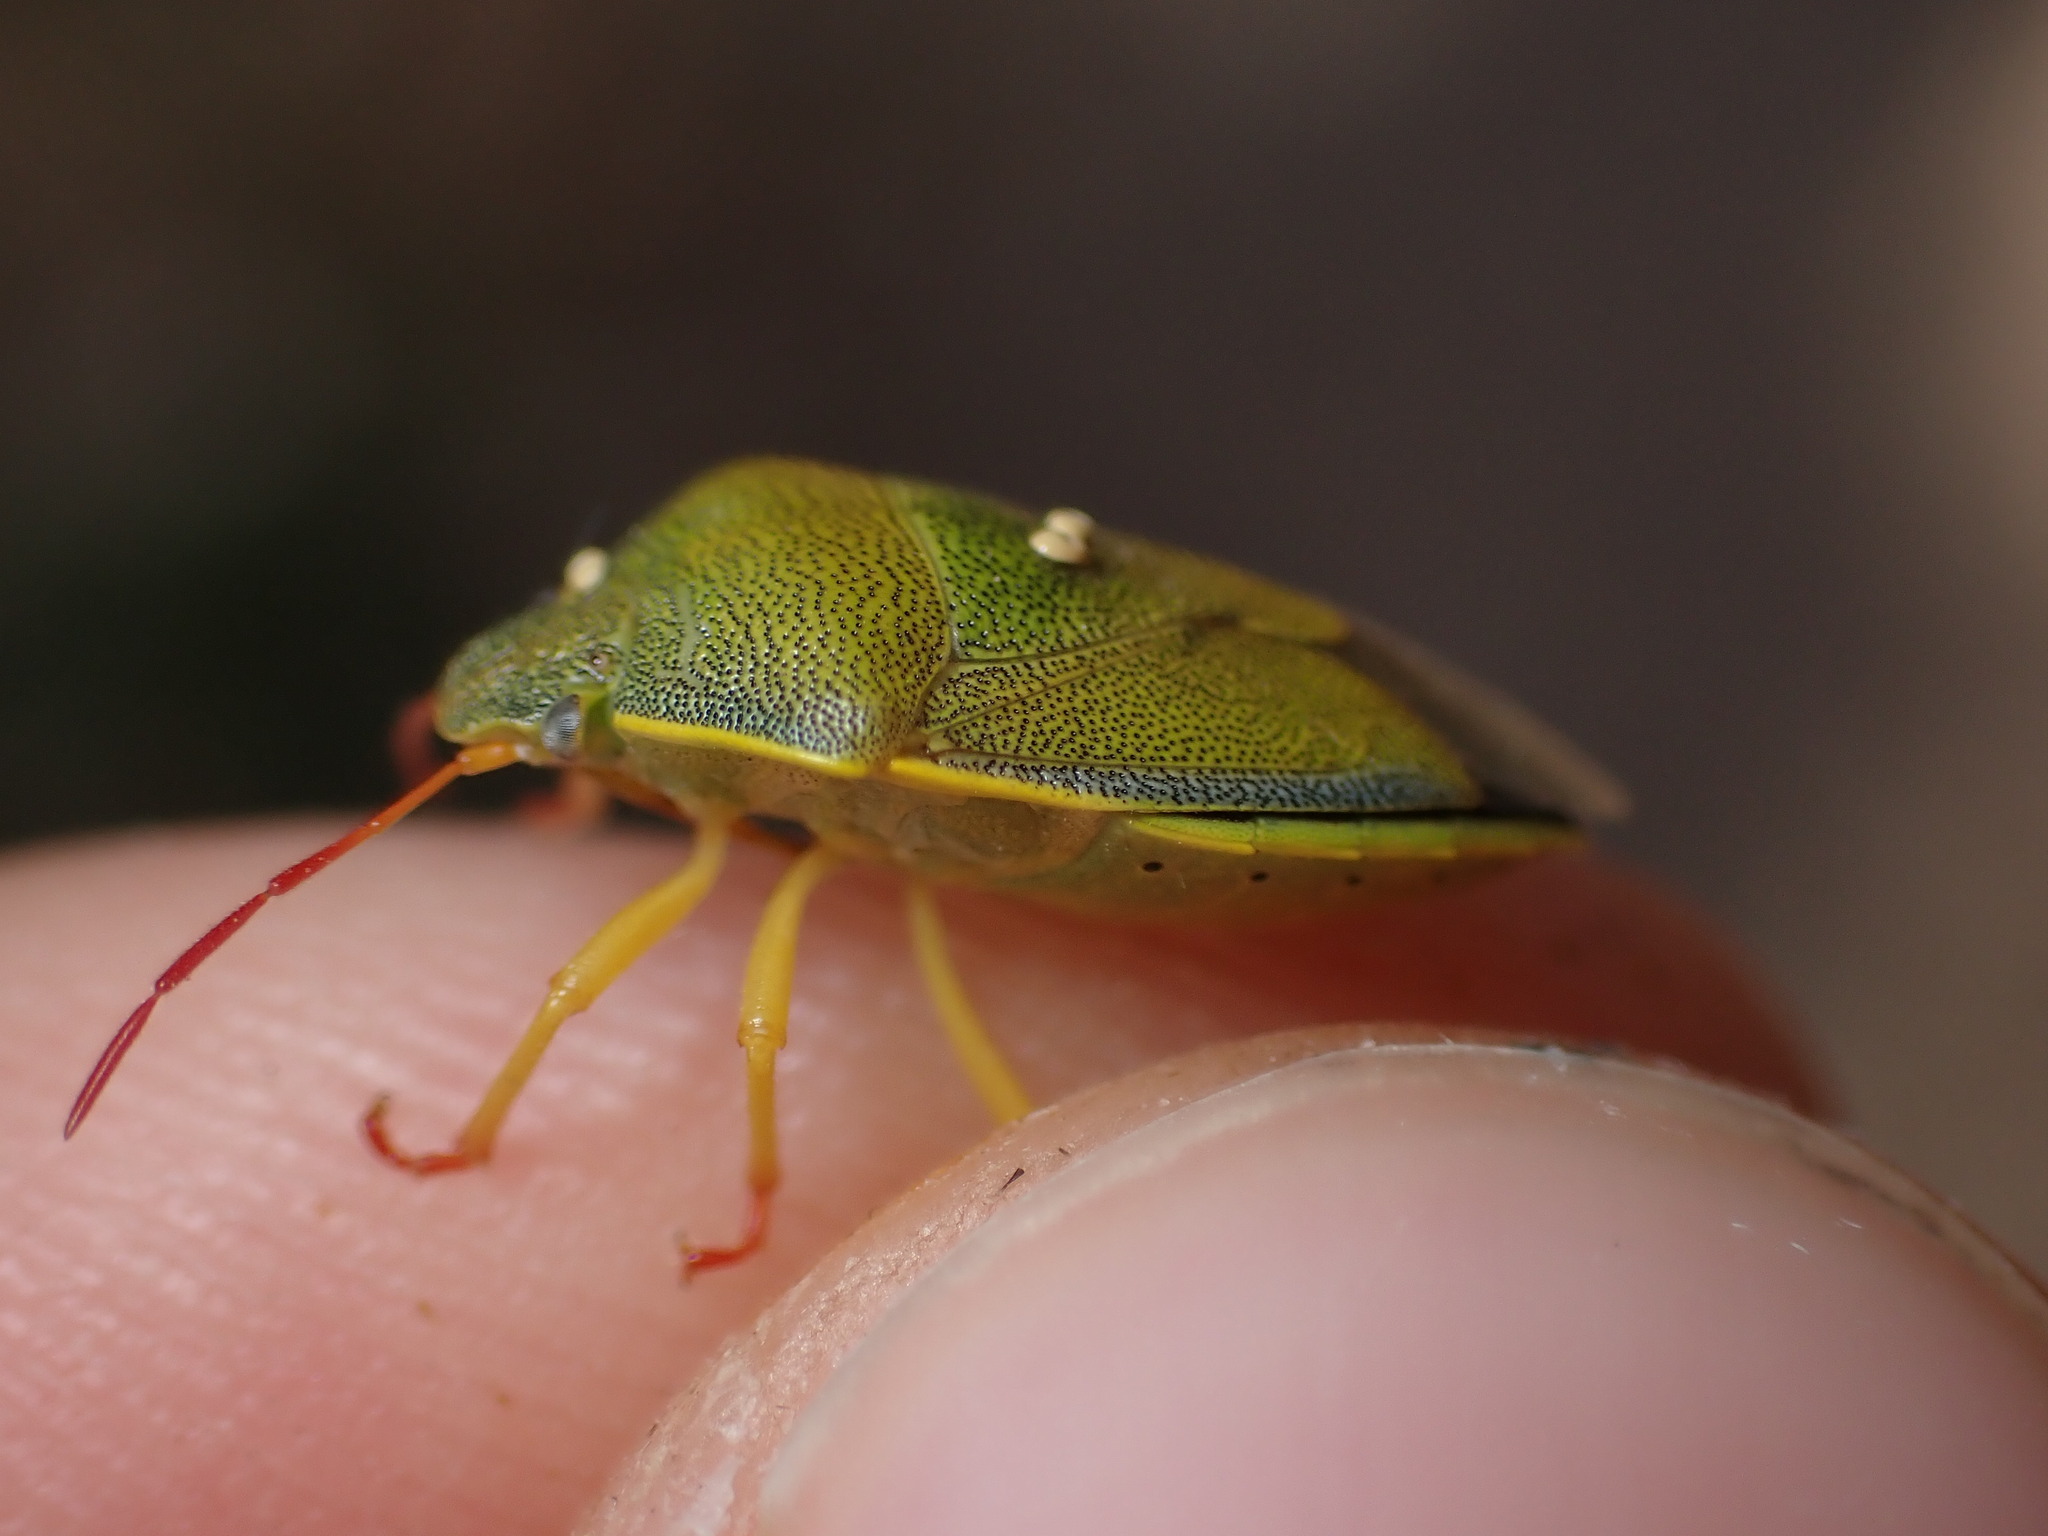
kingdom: Animalia
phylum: Arthropoda
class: Insecta
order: Hemiptera
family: Pentatomidae
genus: Piezodorus
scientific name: Piezodorus lituratus
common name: Stink bug
